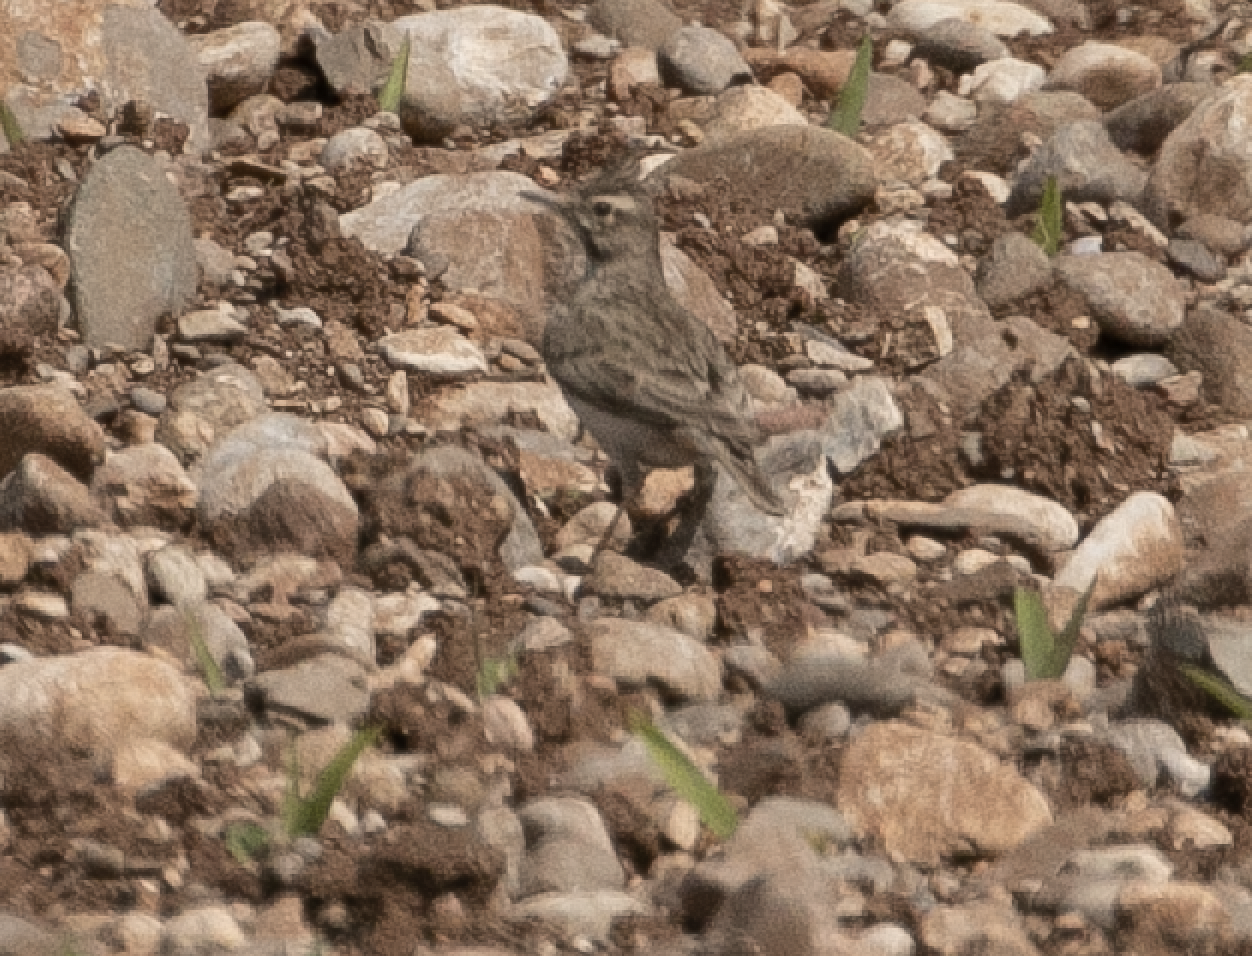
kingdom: Animalia
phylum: Chordata
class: Aves
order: Passeriformes
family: Alaudidae
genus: Galerida
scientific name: Galerida cristata
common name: Crested lark
